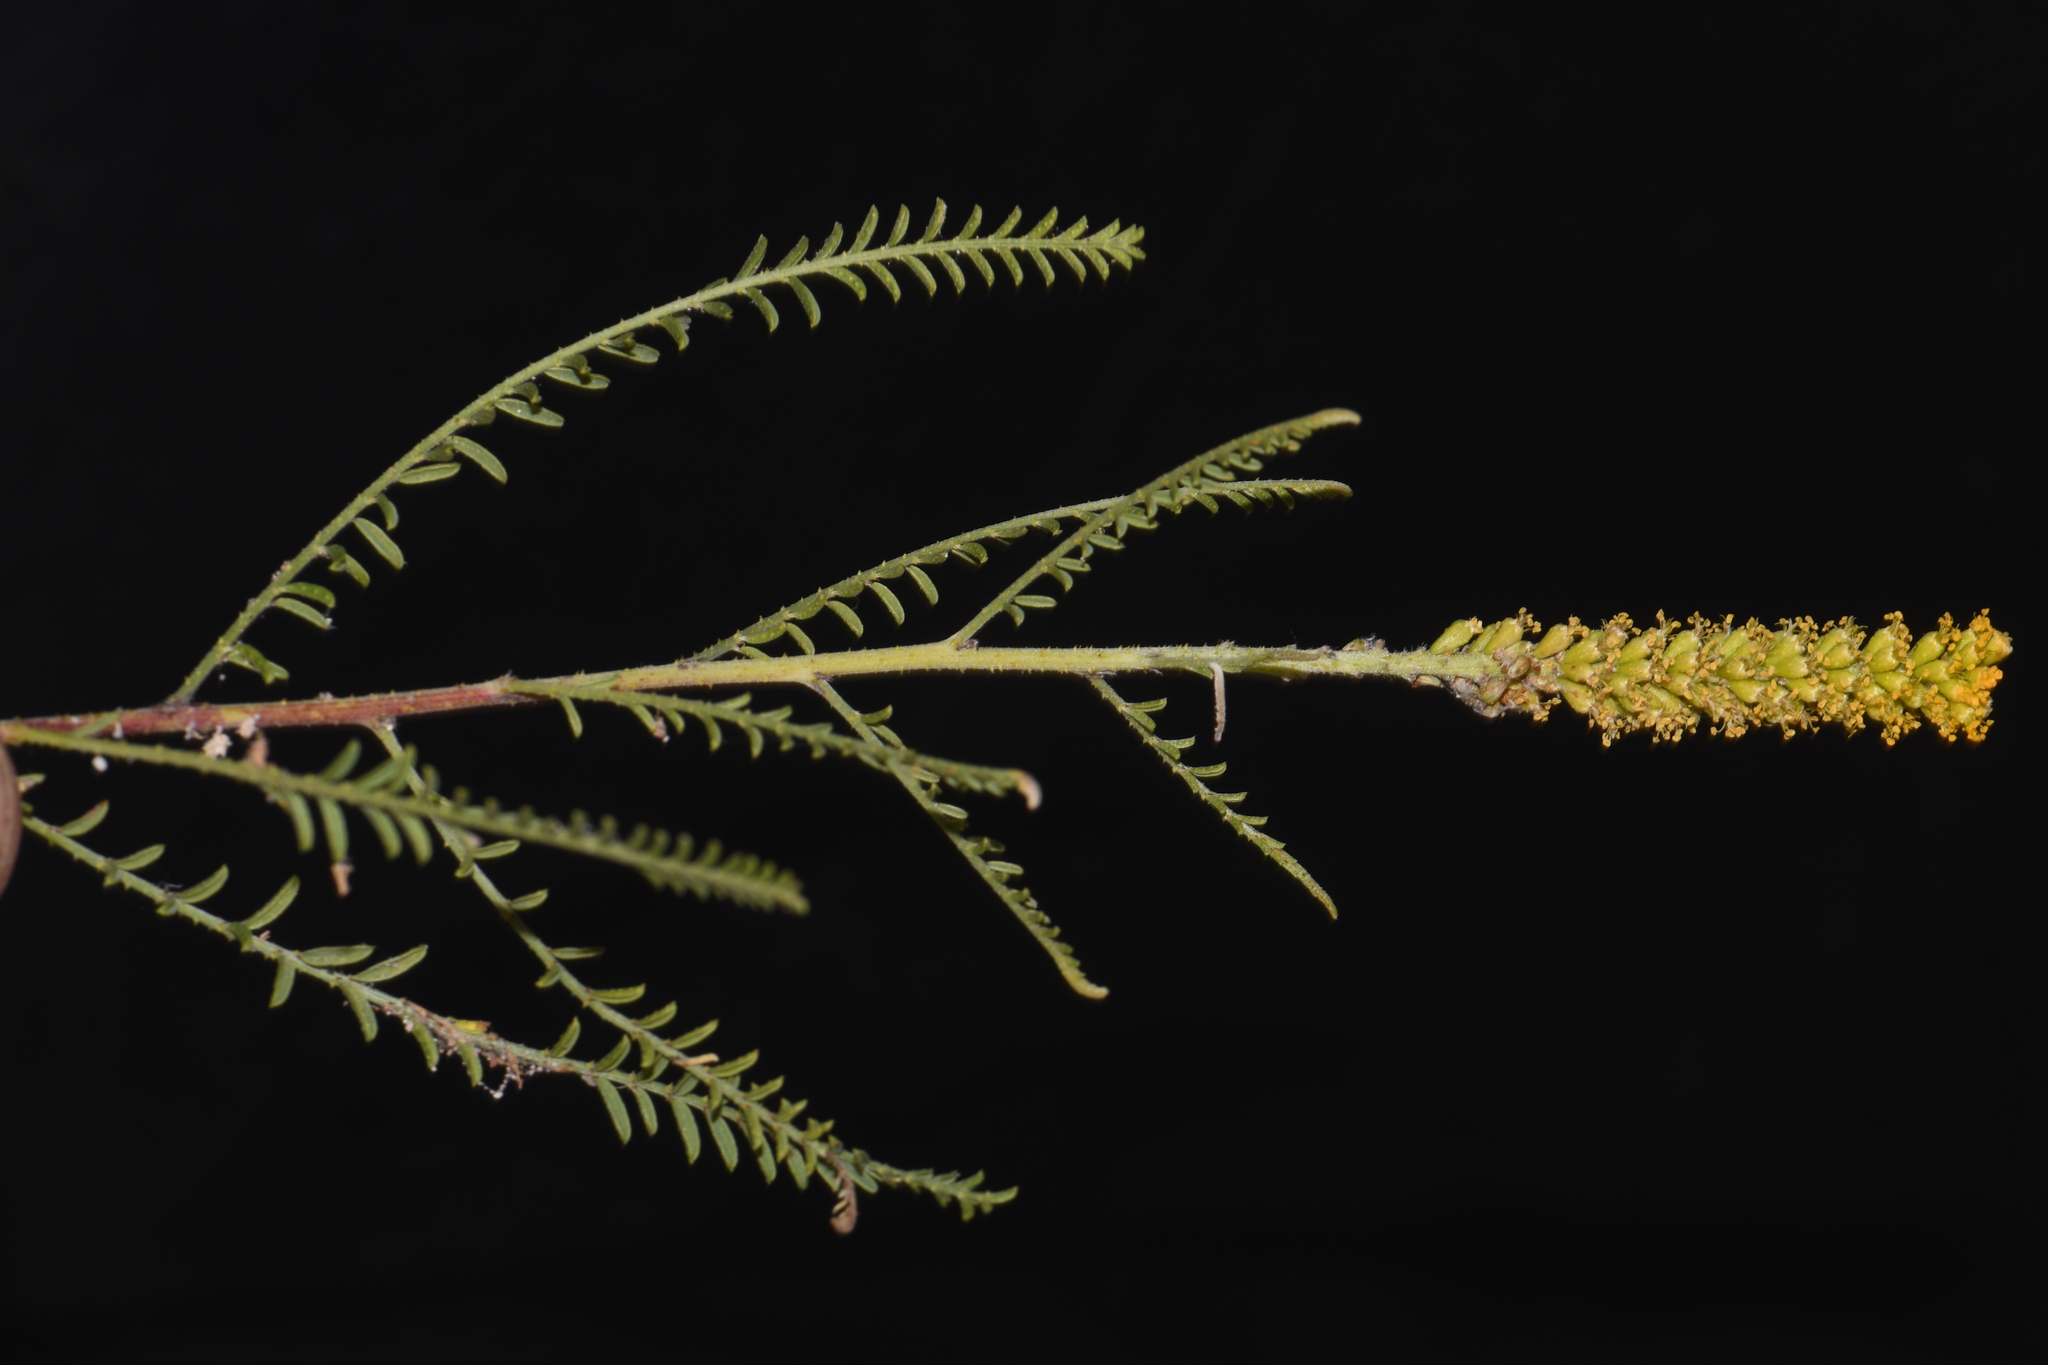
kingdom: Plantae
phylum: Tracheophyta
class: Magnoliopsida
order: Fabales
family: Fabaceae
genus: Parryella
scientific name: Parryella filifolia
